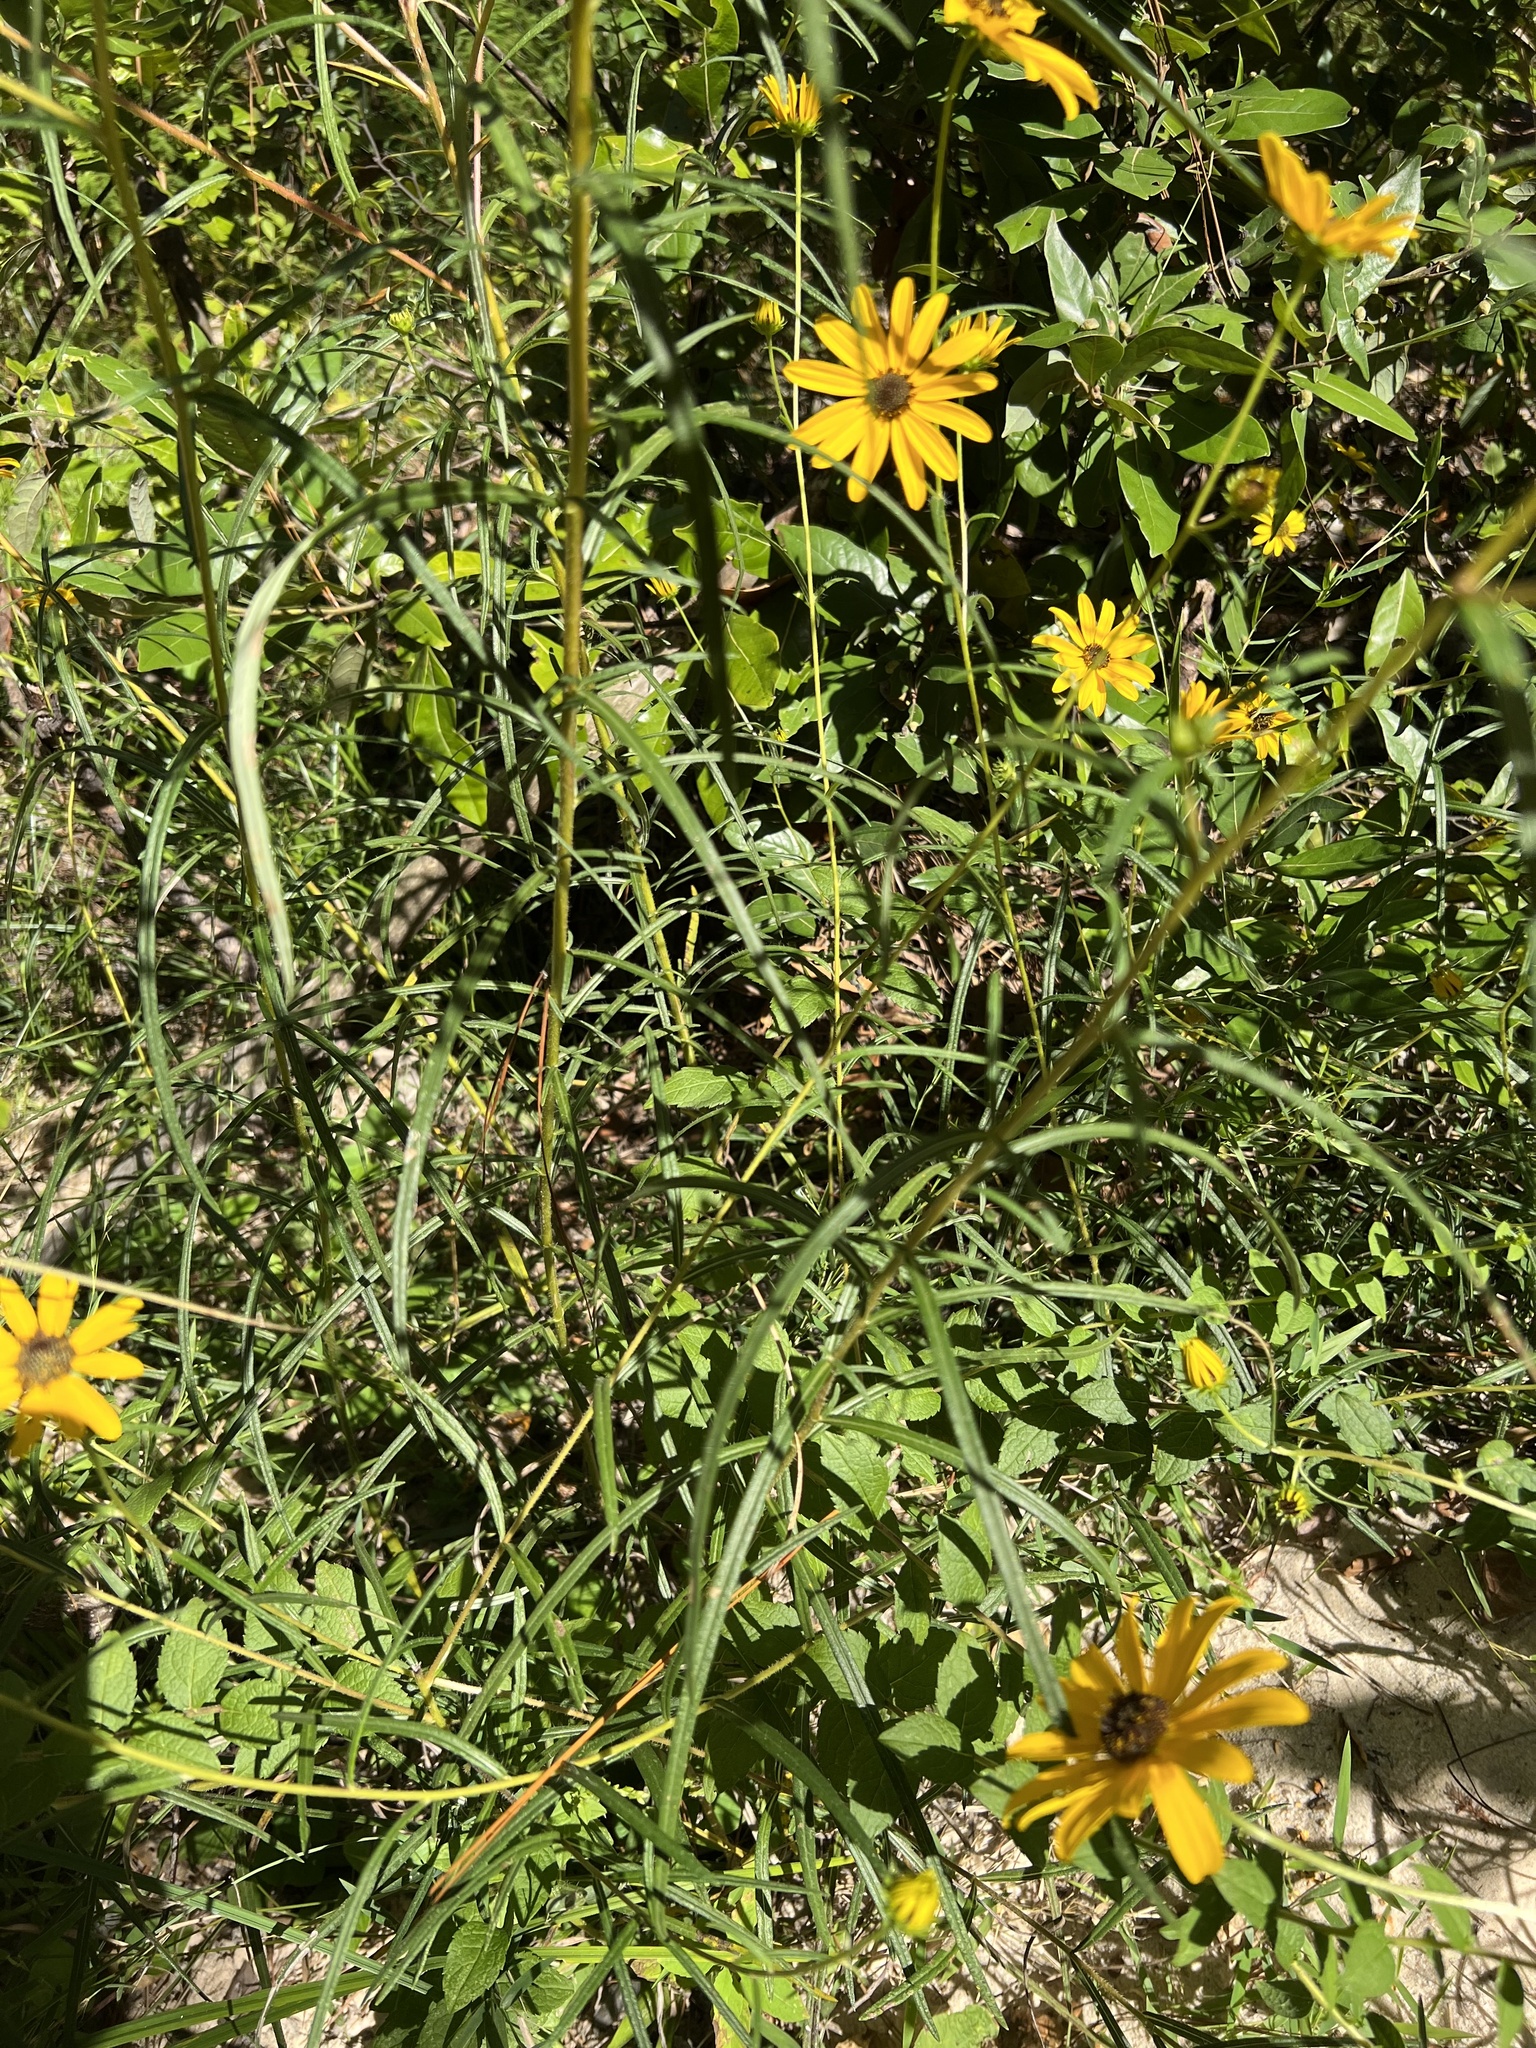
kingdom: Plantae
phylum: Tracheophyta
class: Magnoliopsida
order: Asterales
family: Asteraceae
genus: Helianthus
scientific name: Helianthus angustifolius
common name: Swamp sunflower
